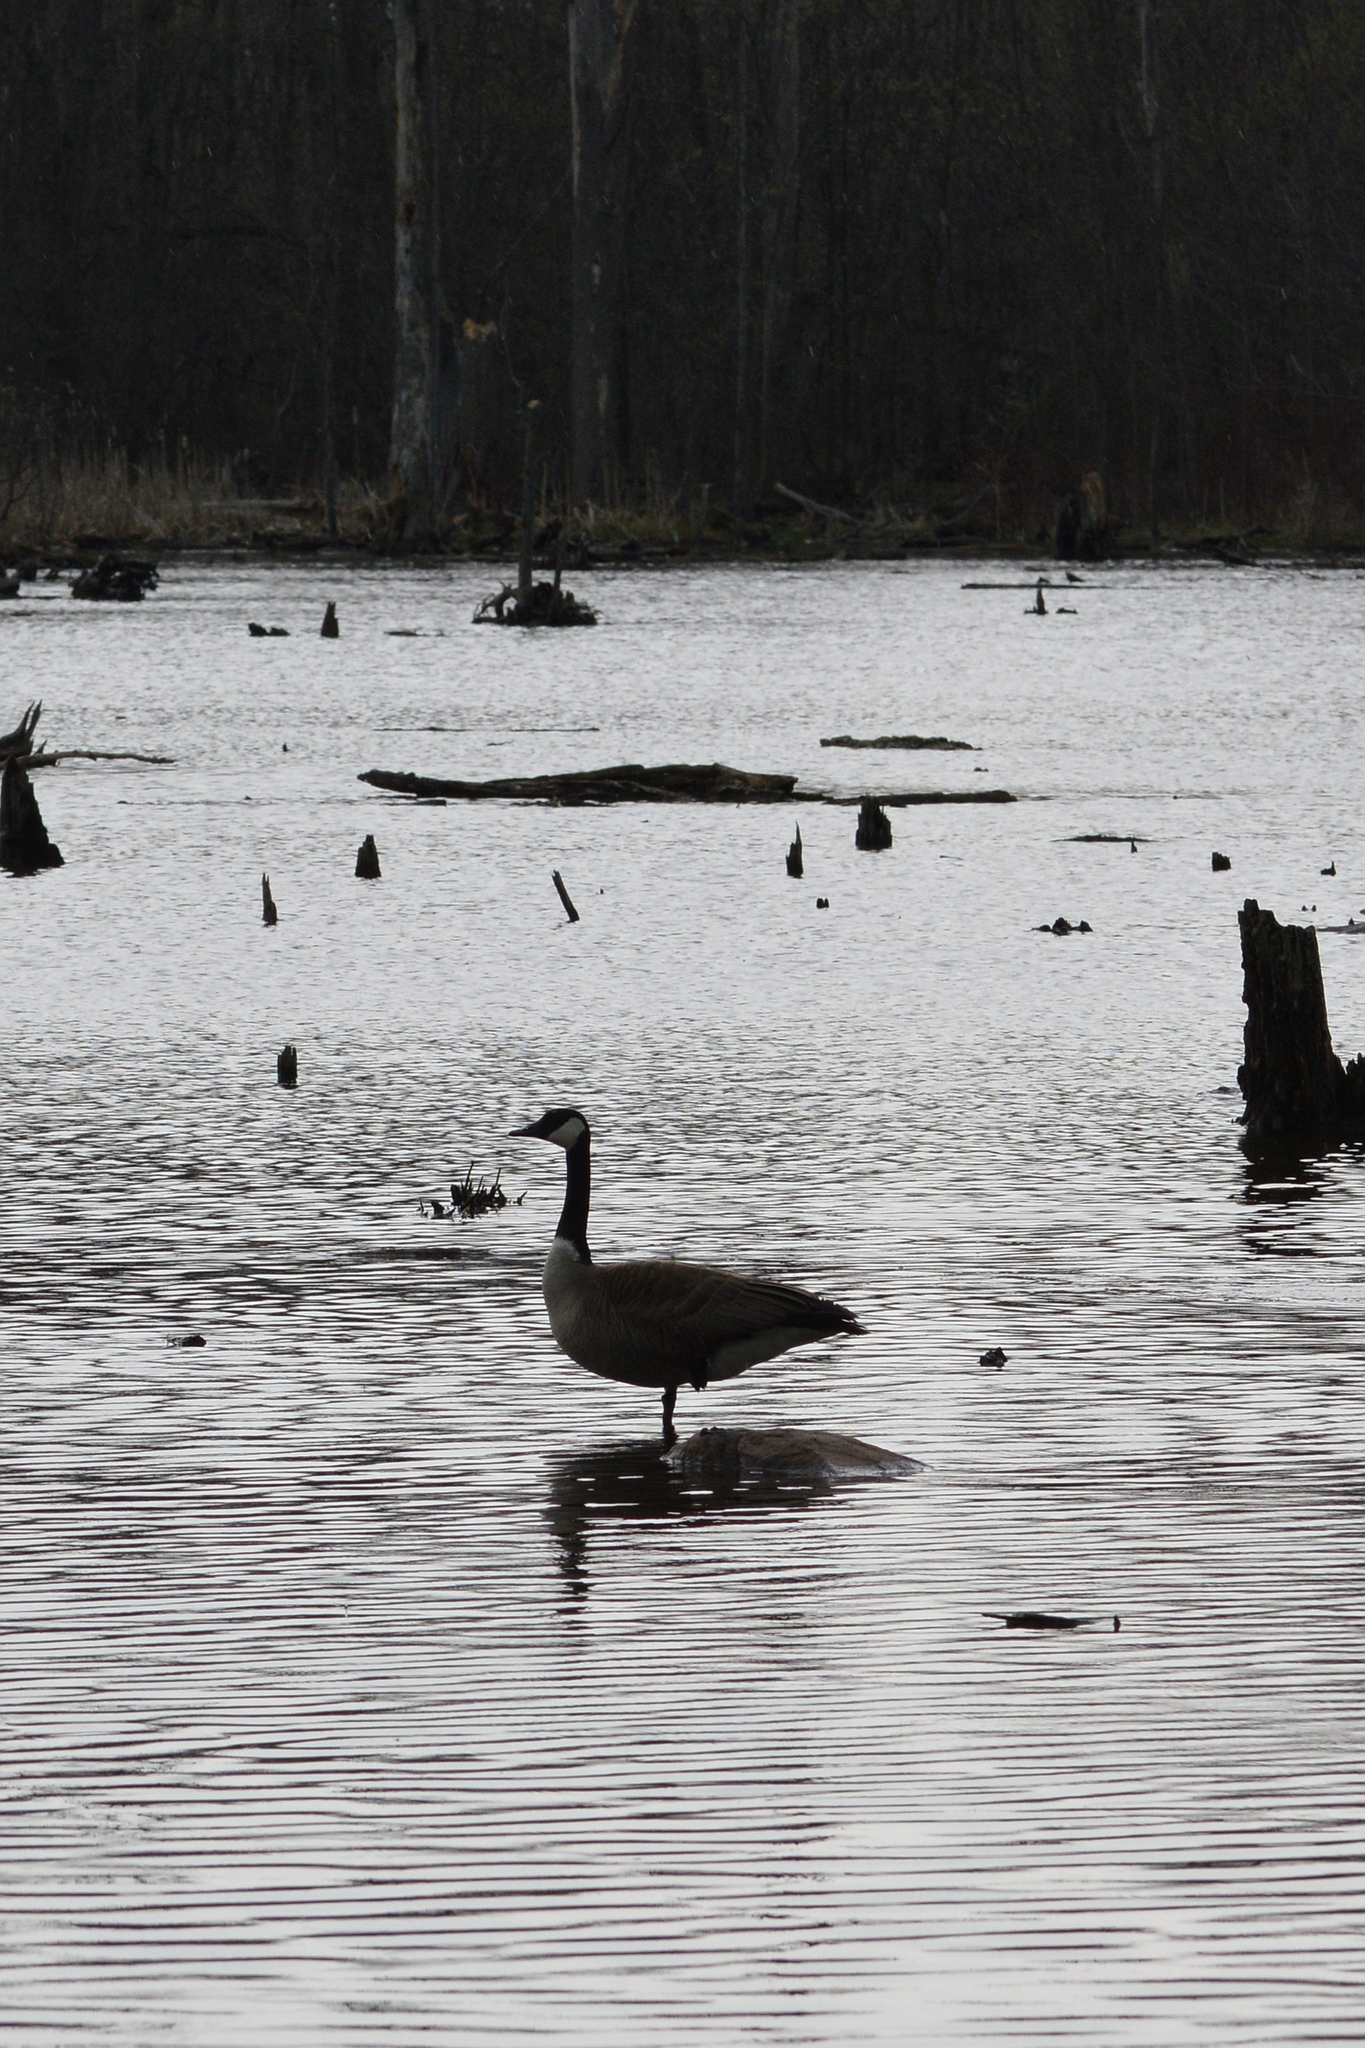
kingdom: Animalia
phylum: Chordata
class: Aves
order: Anseriformes
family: Anatidae
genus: Branta
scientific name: Branta canadensis
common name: Canada goose
